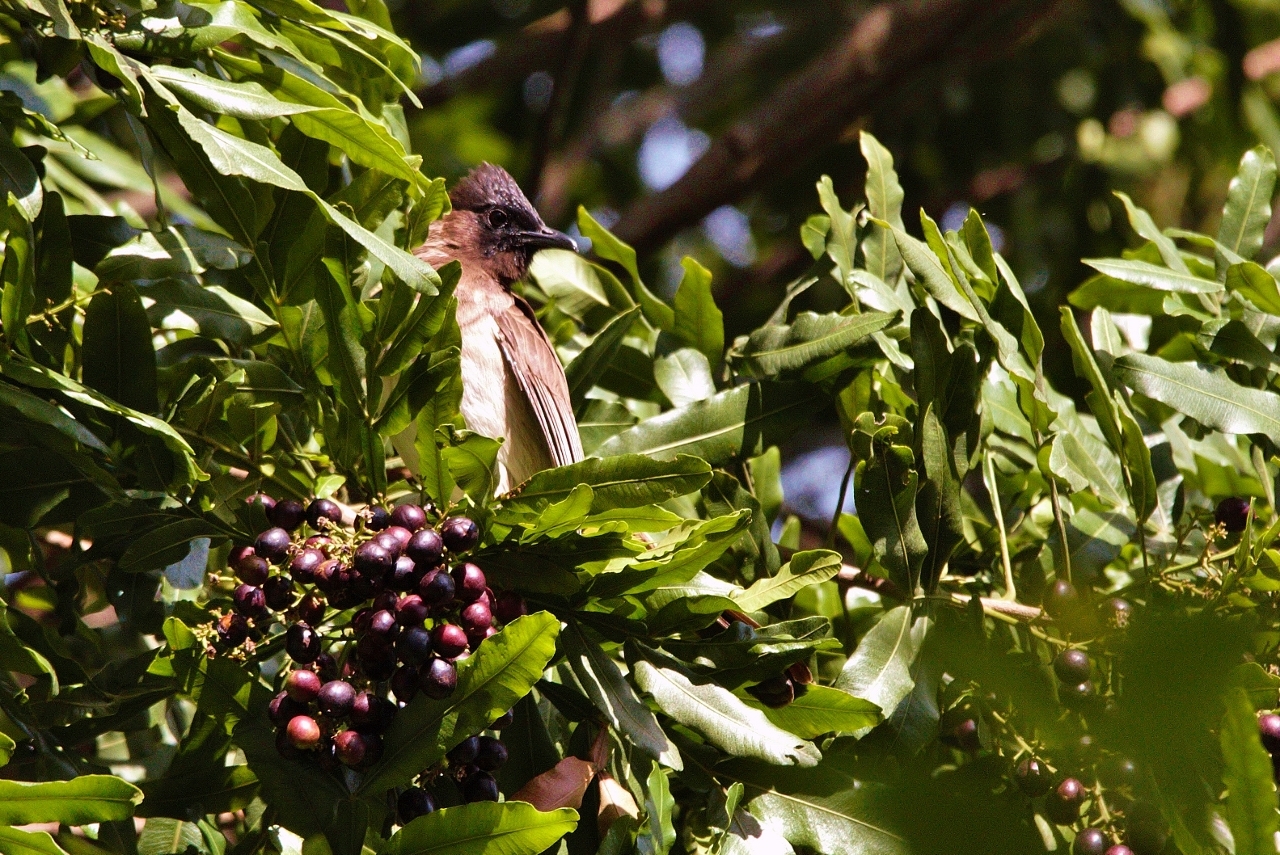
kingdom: Animalia
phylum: Chordata
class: Aves
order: Passeriformes
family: Pycnonotidae
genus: Pycnonotus
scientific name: Pycnonotus barbatus
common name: Common bulbul
